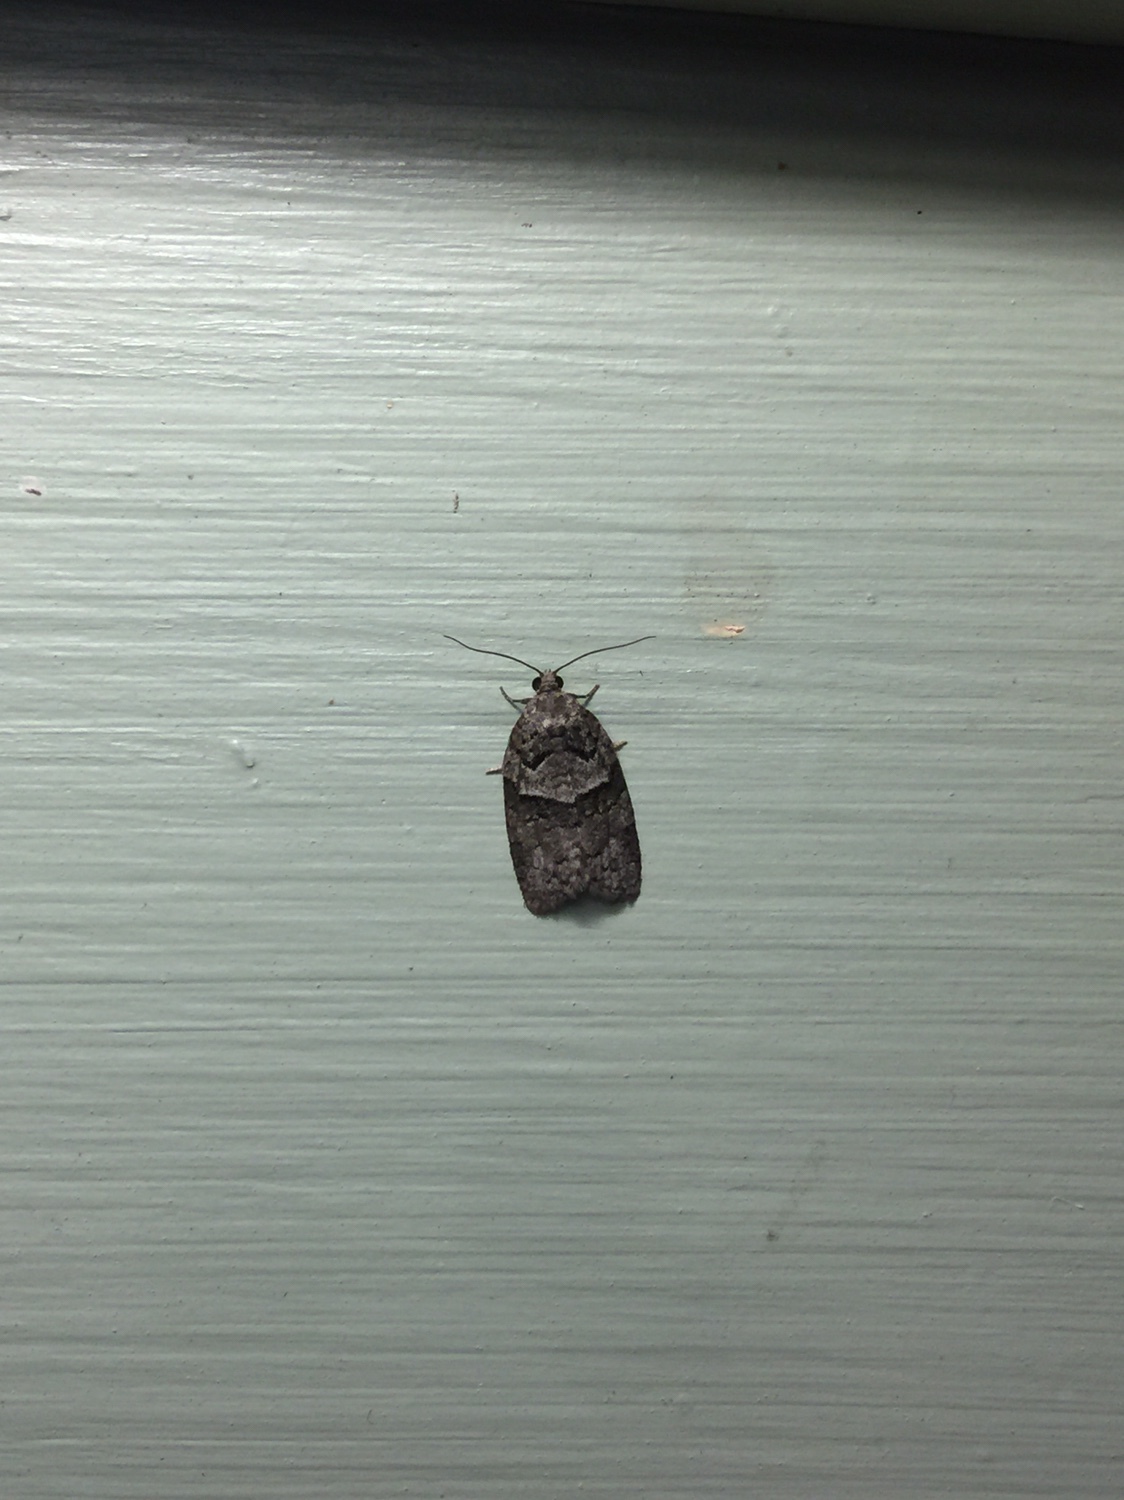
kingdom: Animalia
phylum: Arthropoda
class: Insecta
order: Lepidoptera
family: Tortricidae
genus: Syndemis
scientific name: Syndemis afflictana
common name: Gray leafroller moth
